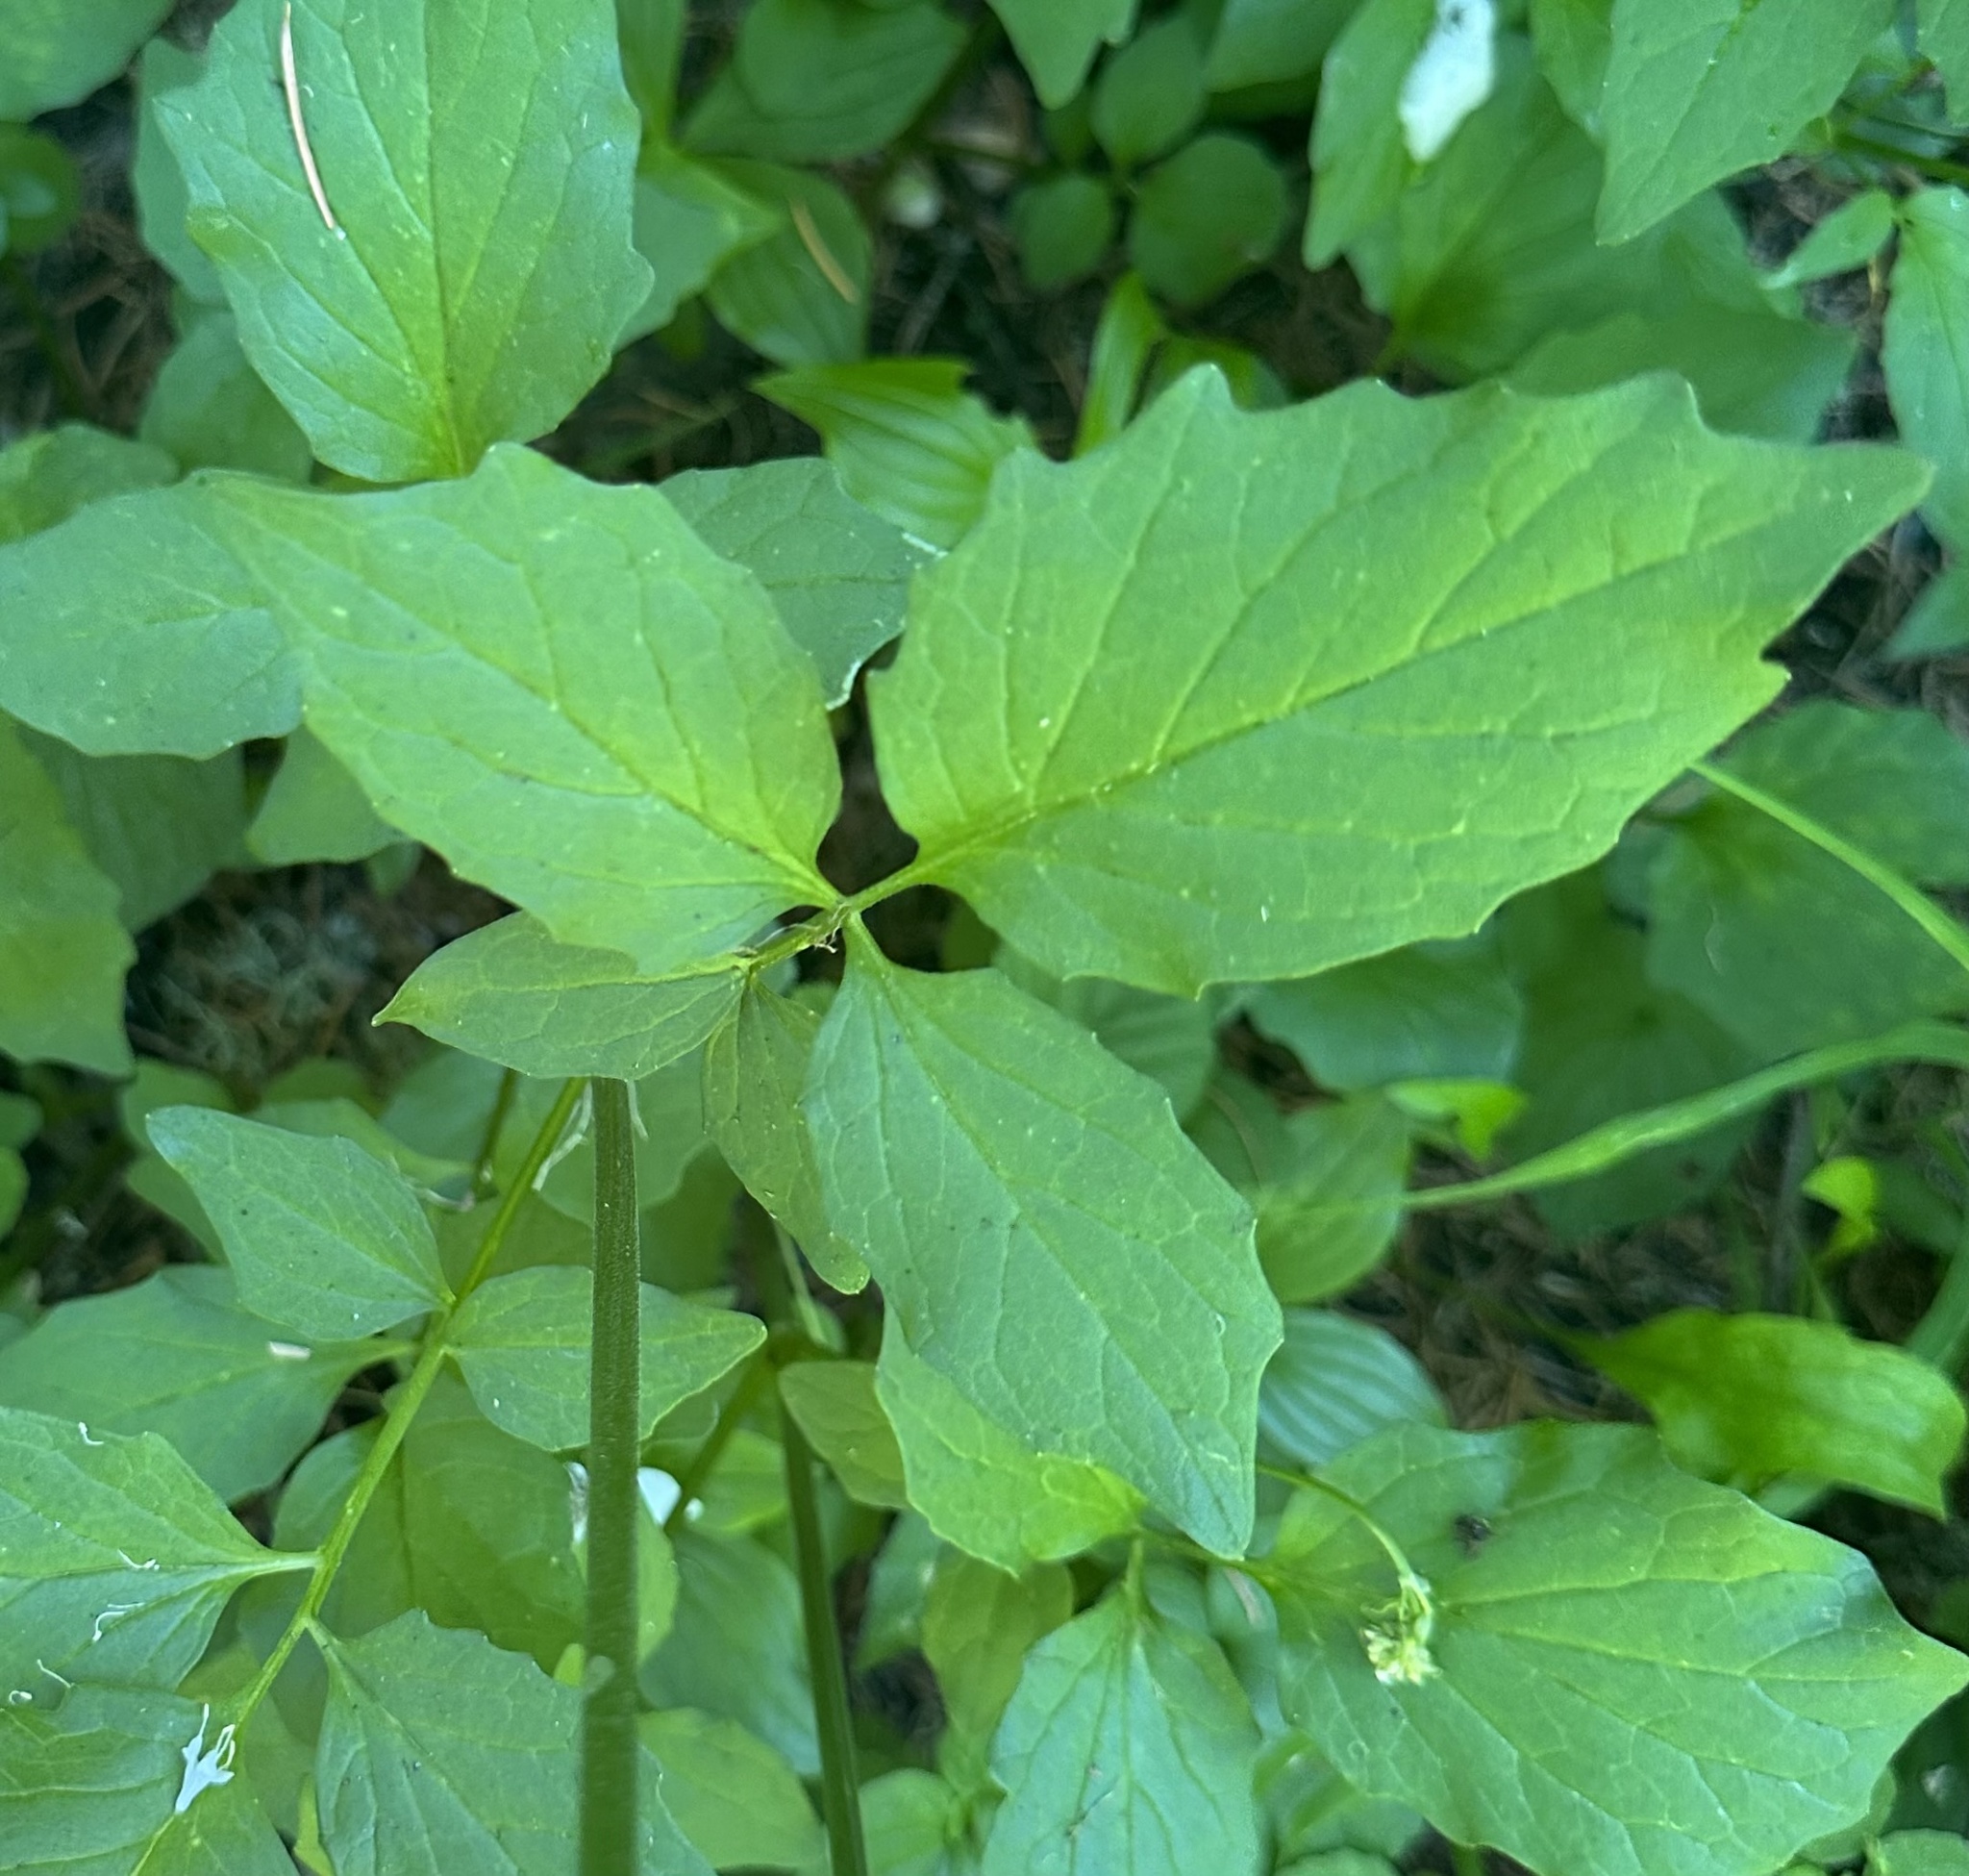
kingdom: Plantae
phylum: Tracheophyta
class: Magnoliopsida
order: Dipsacales
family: Caprifoliaceae
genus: Valeriana
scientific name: Valeriana sitchensis
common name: Pacific valerian
